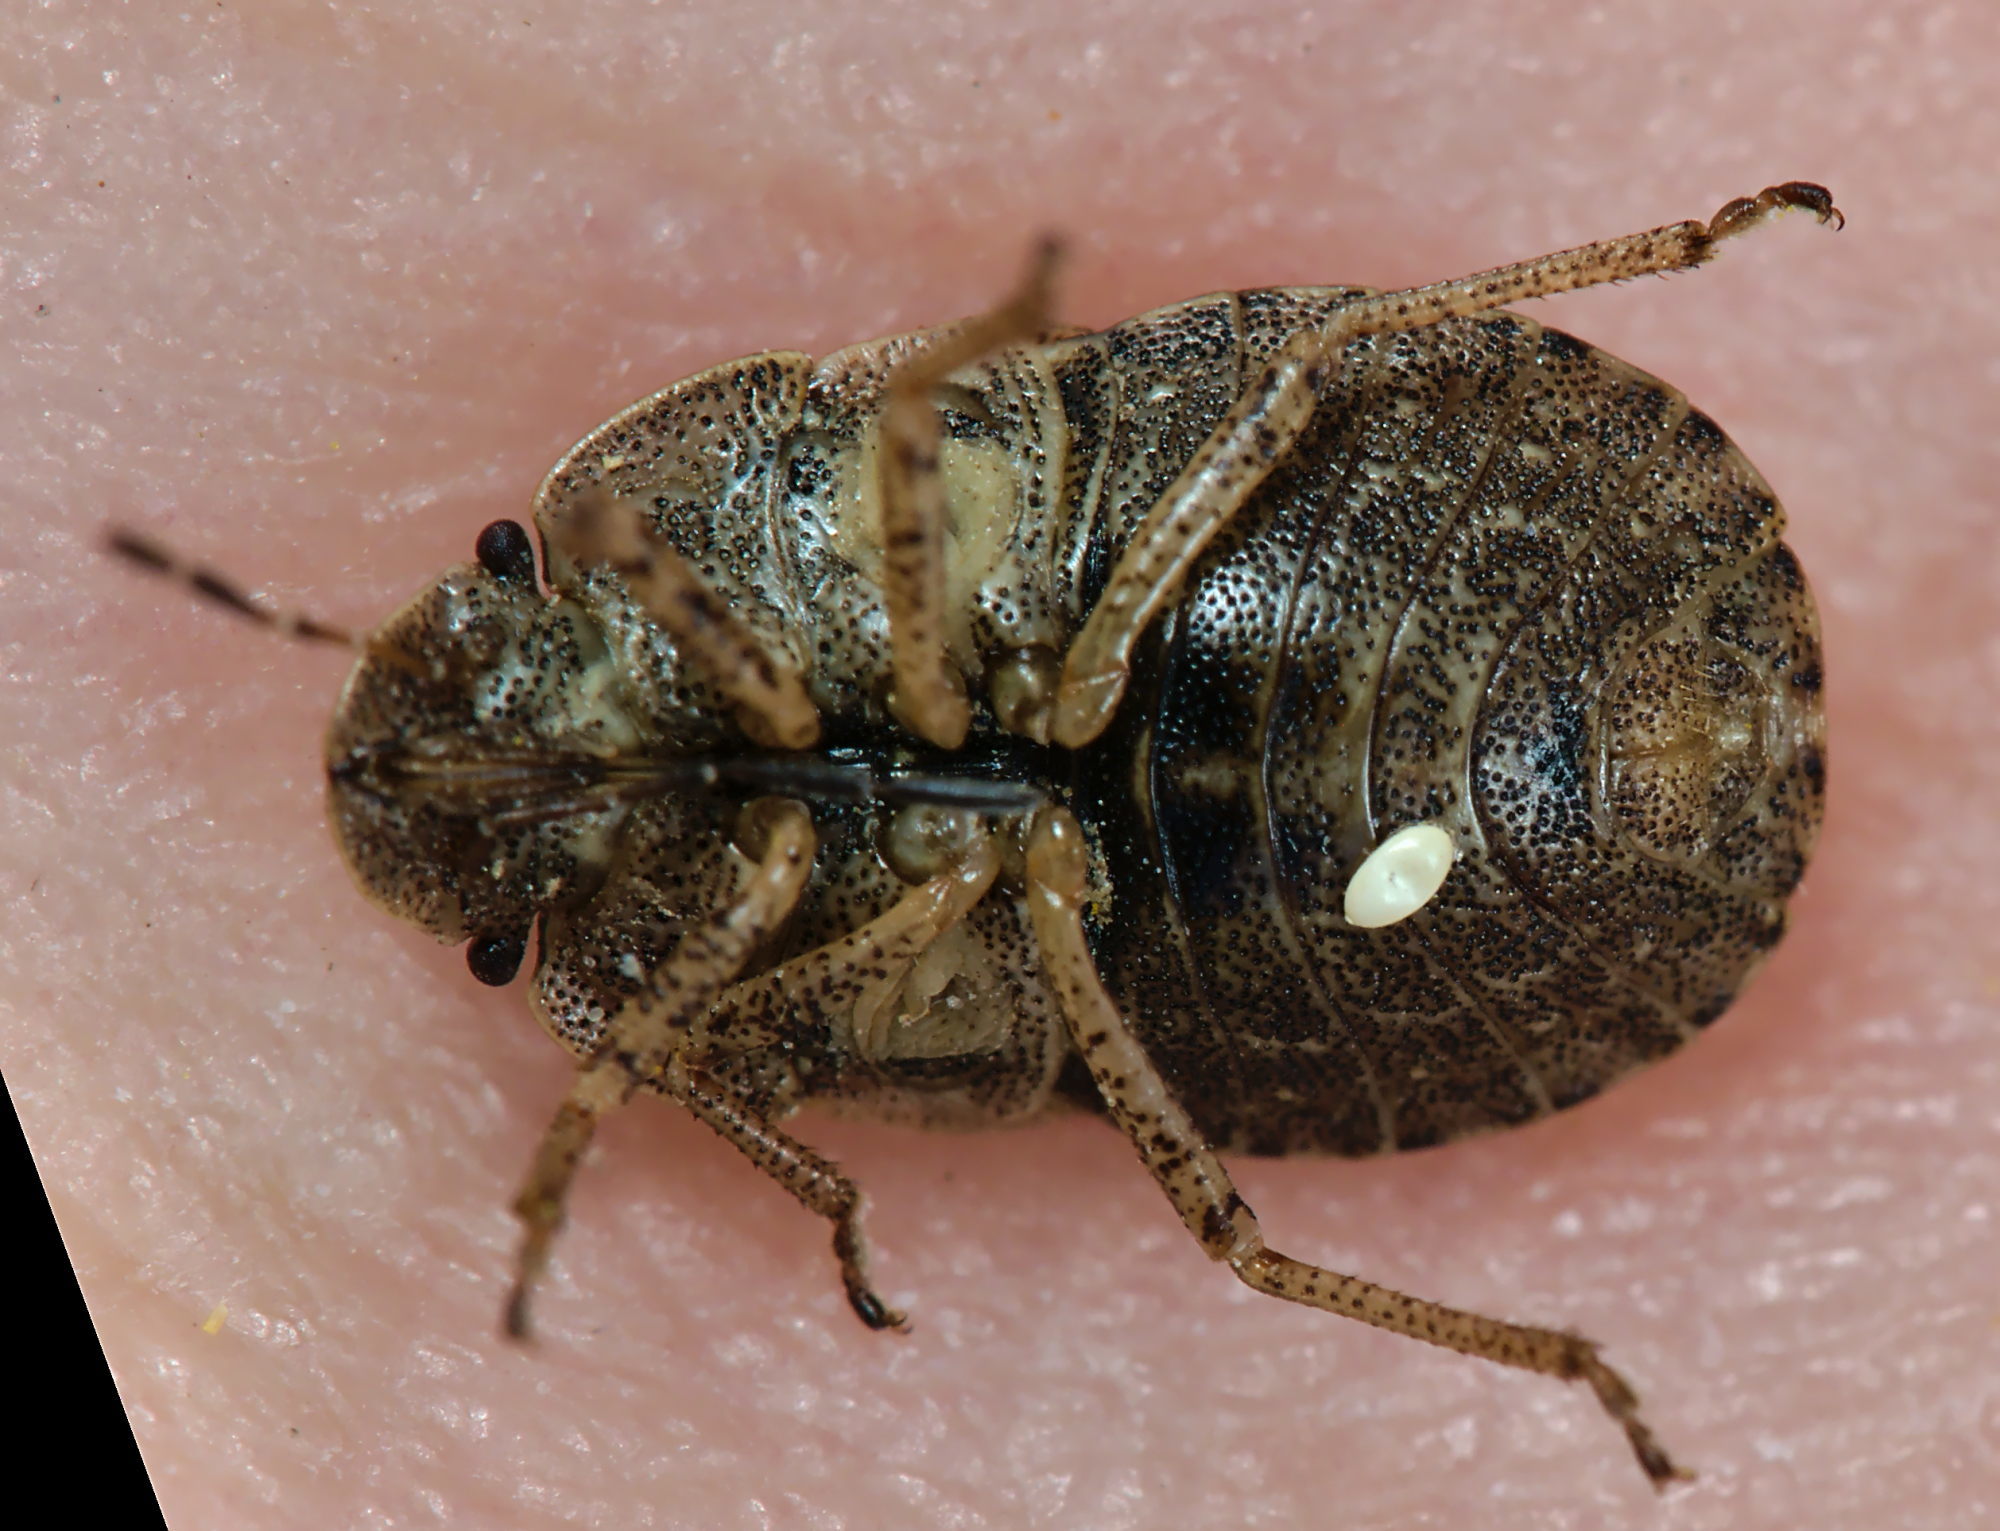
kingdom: Animalia
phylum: Arthropoda
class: Insecta
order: Hemiptera
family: Pentatomidae
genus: Sciocoris
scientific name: Sciocoris microphthalmus
